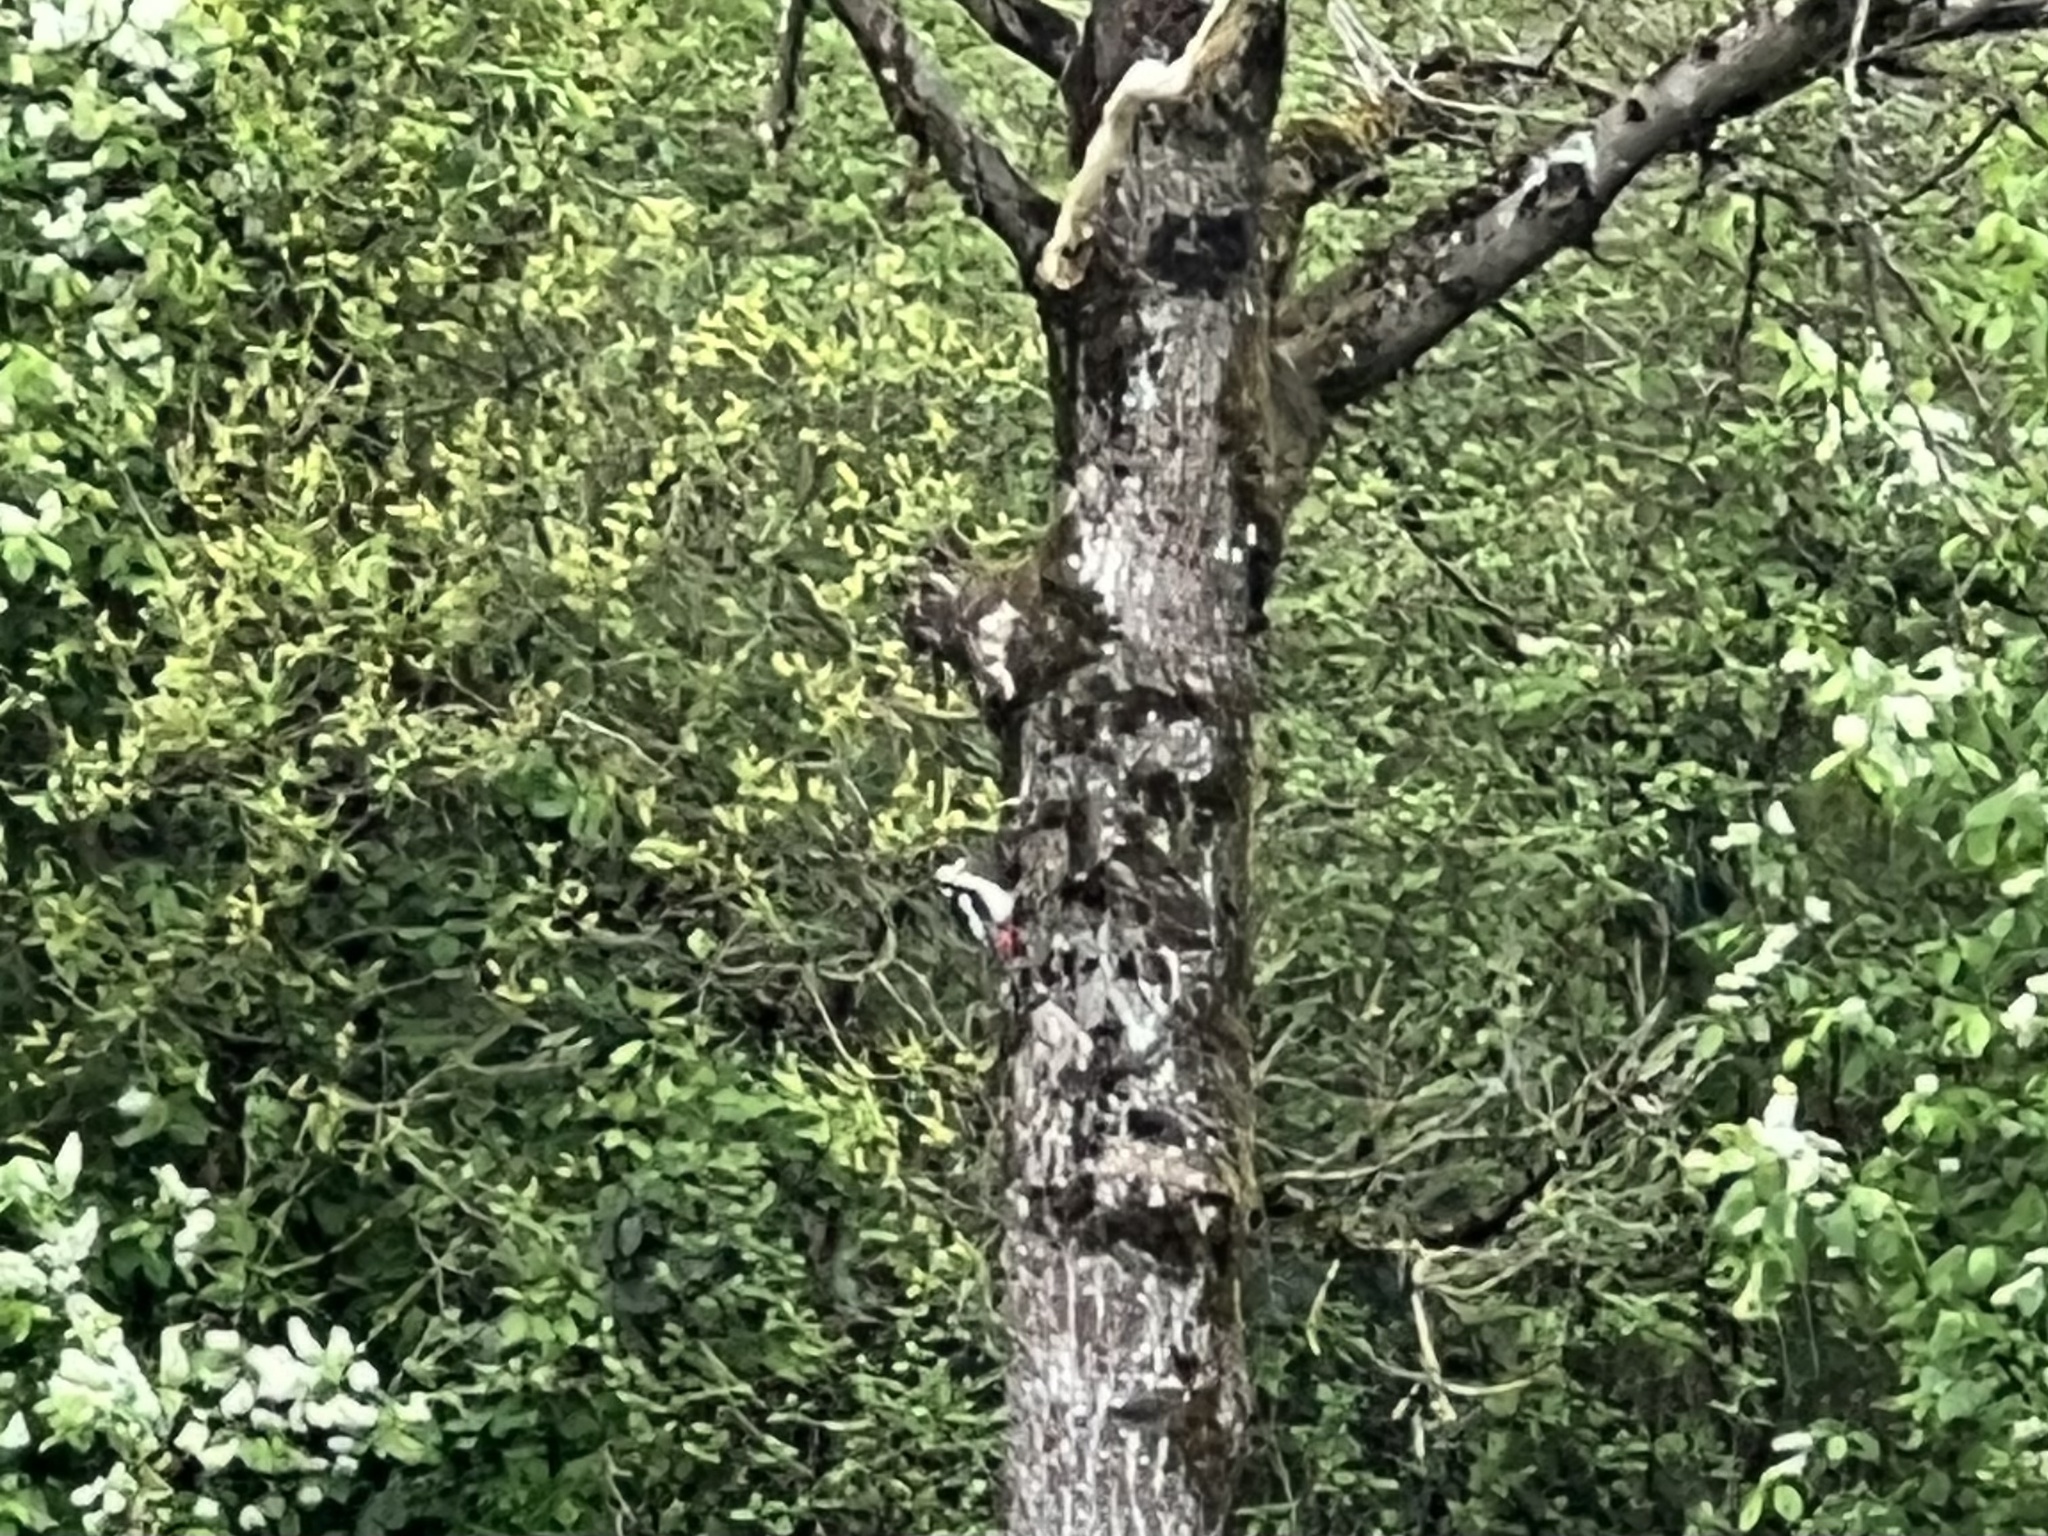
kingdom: Animalia
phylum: Chordata
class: Aves
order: Piciformes
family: Picidae
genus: Dendrocopos
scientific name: Dendrocopos major
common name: Great spotted woodpecker
